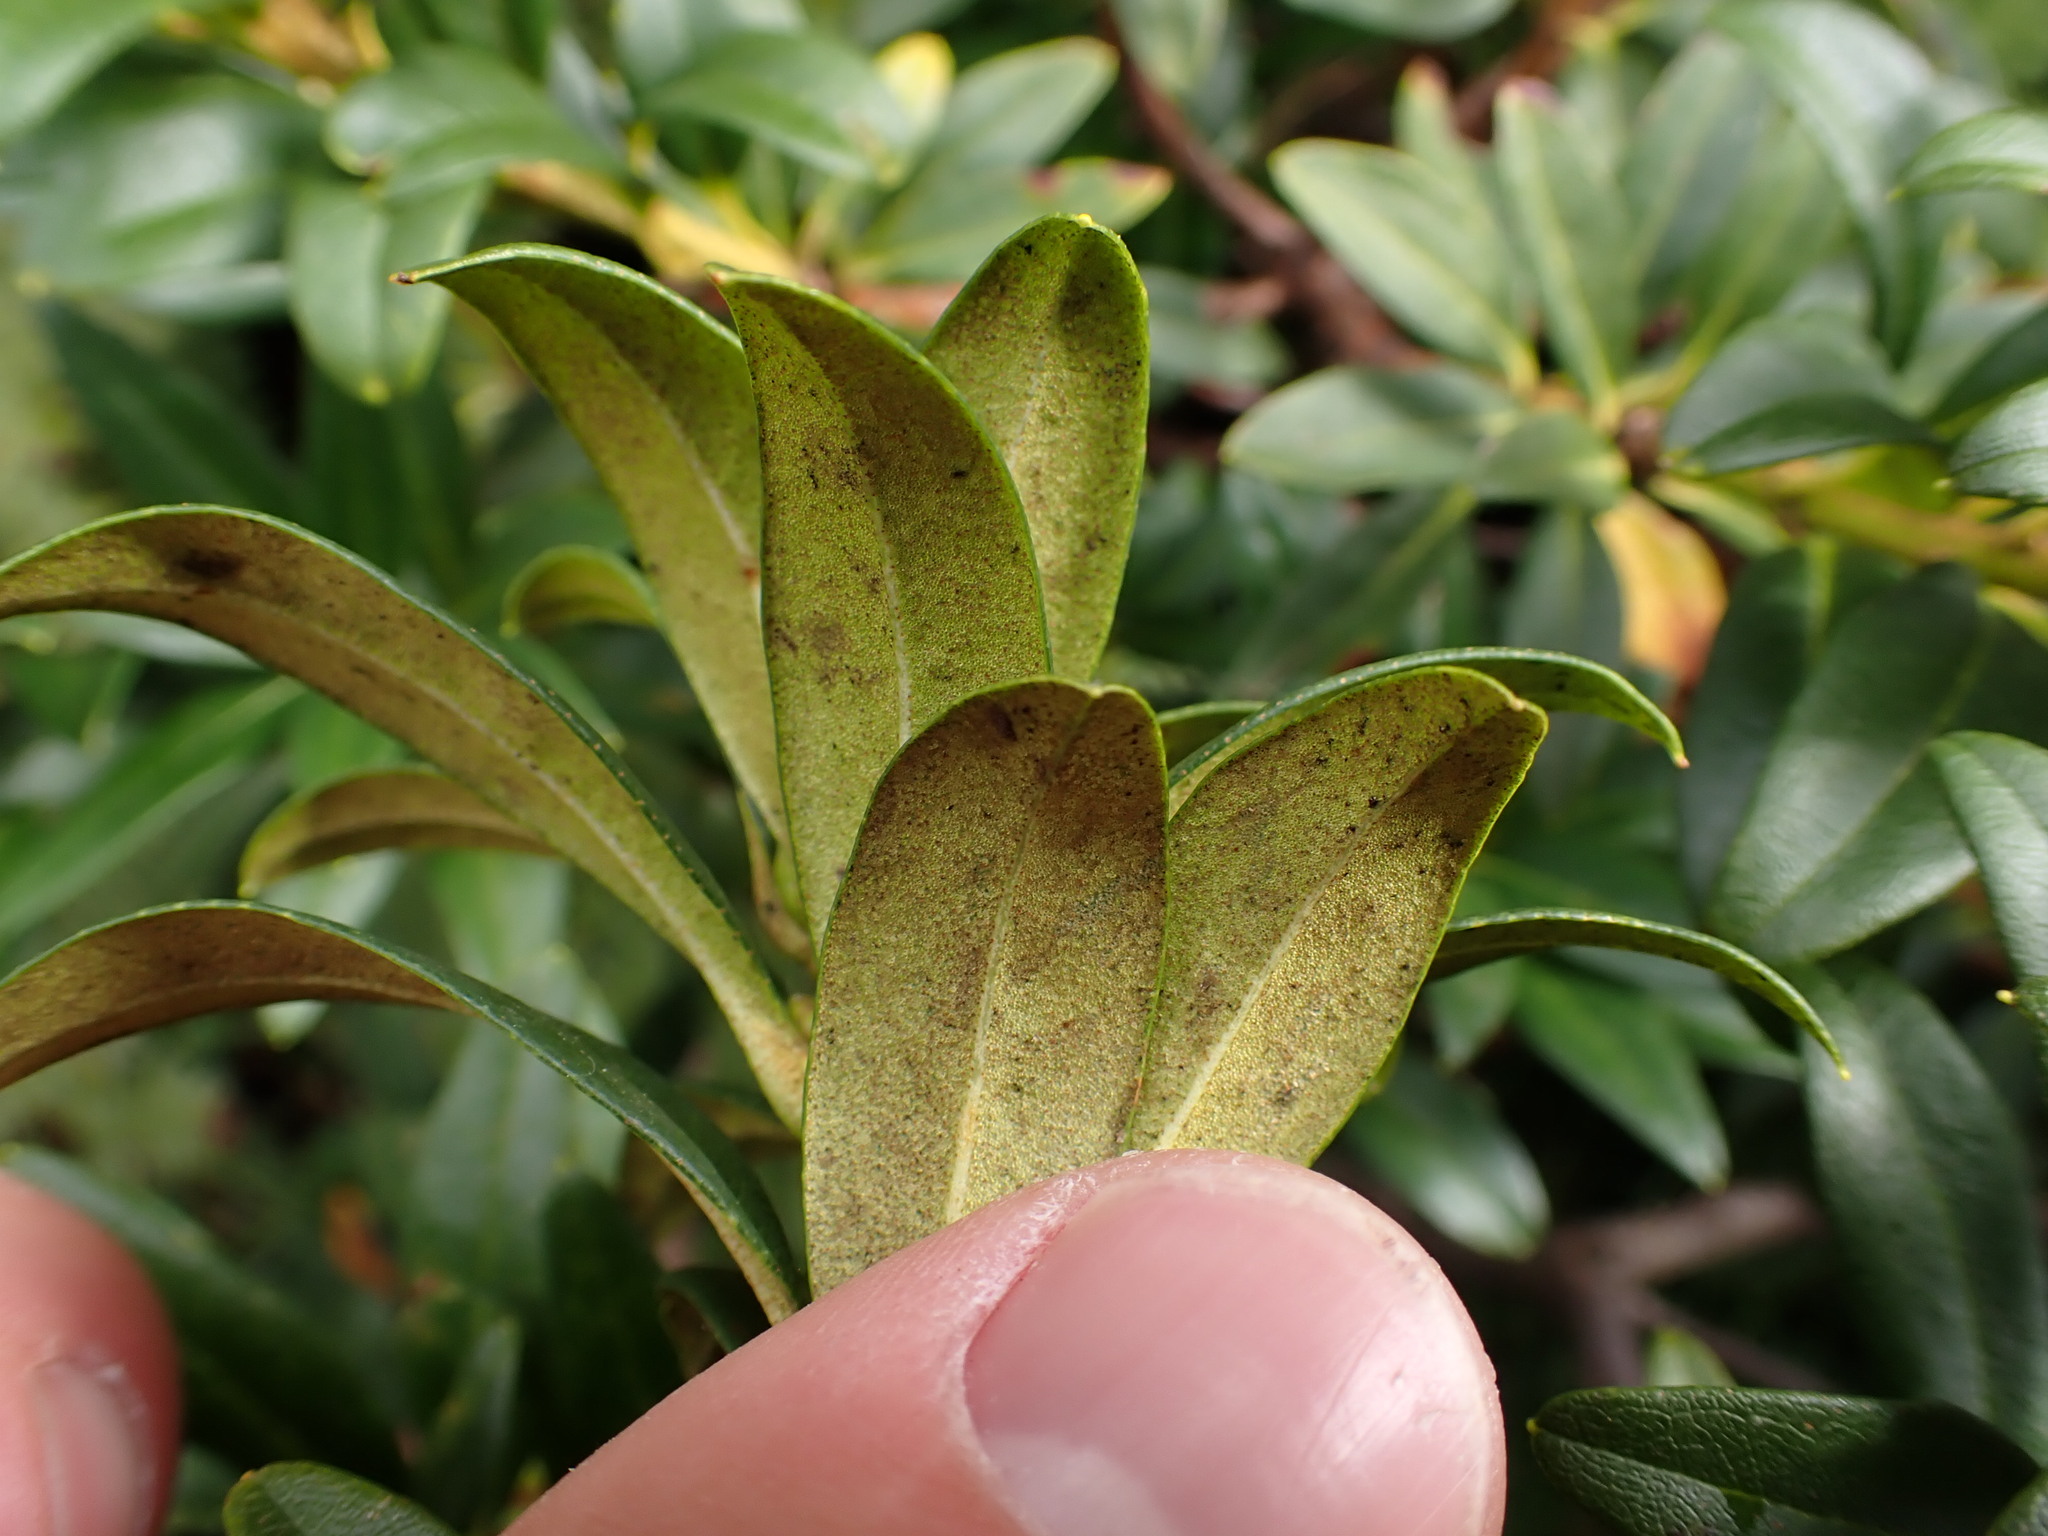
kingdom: Plantae
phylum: Tracheophyta
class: Magnoliopsida
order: Ericales
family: Ericaceae
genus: Rhododendron
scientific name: Rhododendron ferrugineum
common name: Alpenrose
